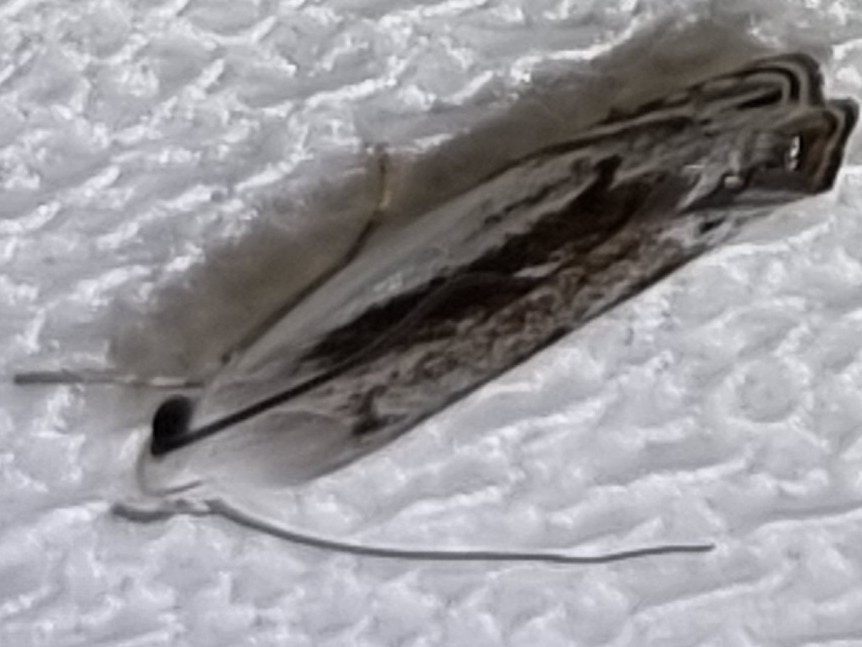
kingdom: Animalia
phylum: Arthropoda
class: Insecta
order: Lepidoptera
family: Xyloryctidae
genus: Iulactis
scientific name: Iulactis semifusca
